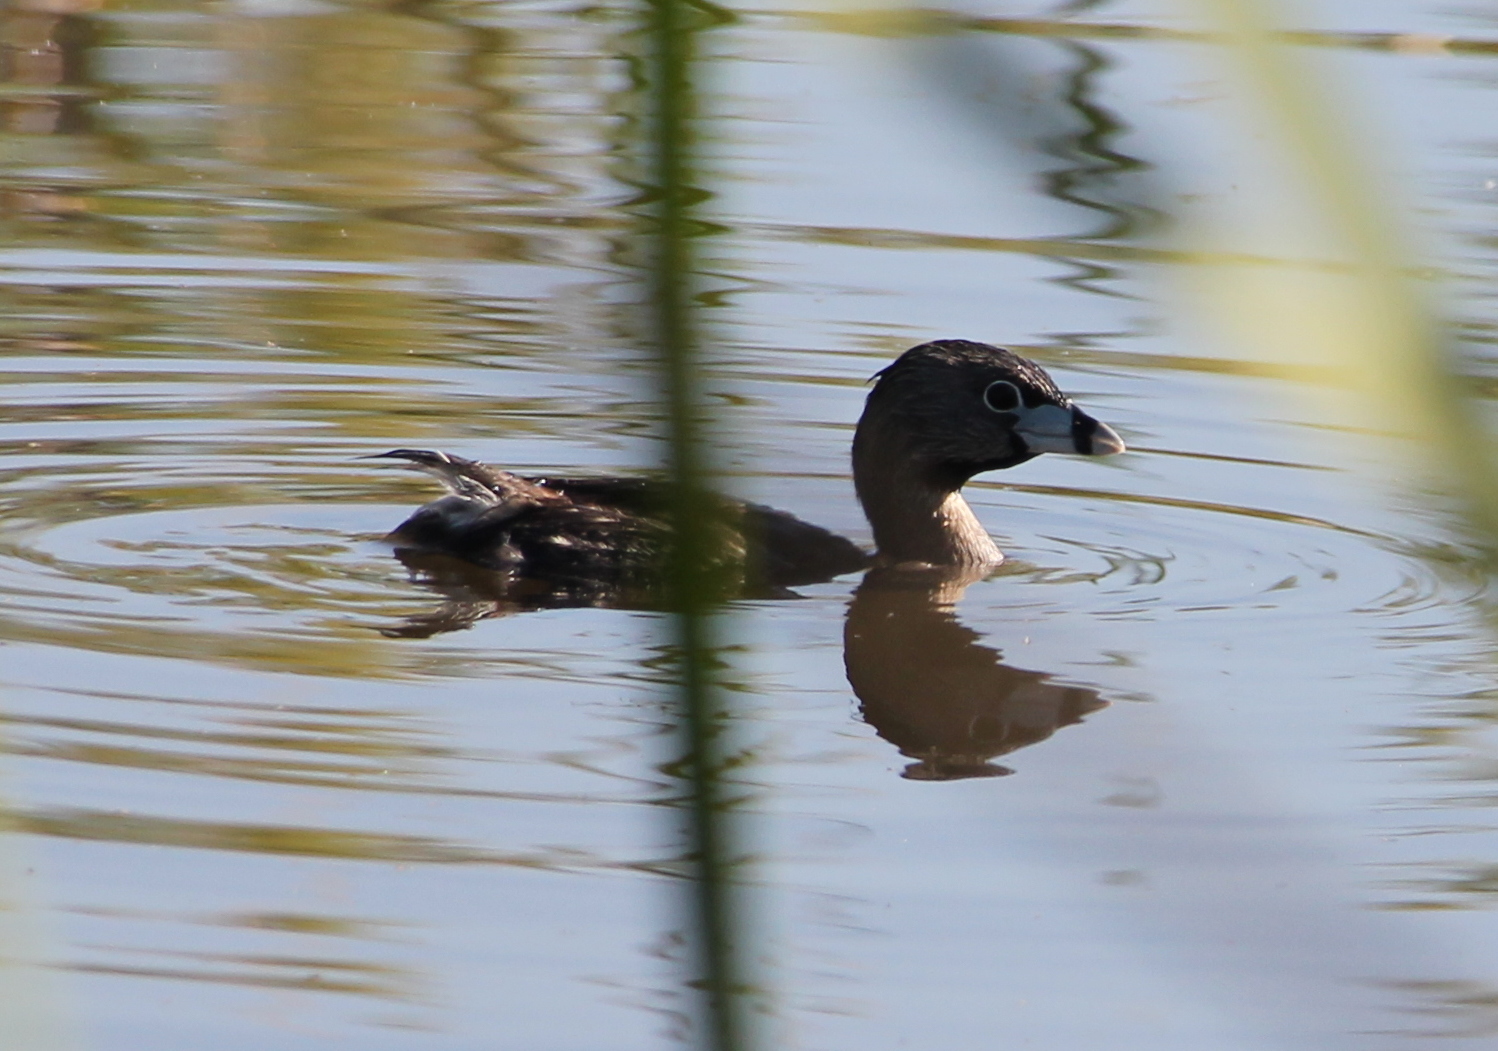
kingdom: Animalia
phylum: Chordata
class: Aves
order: Podicipediformes
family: Podicipedidae
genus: Podilymbus
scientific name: Podilymbus podiceps
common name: Pied-billed grebe
